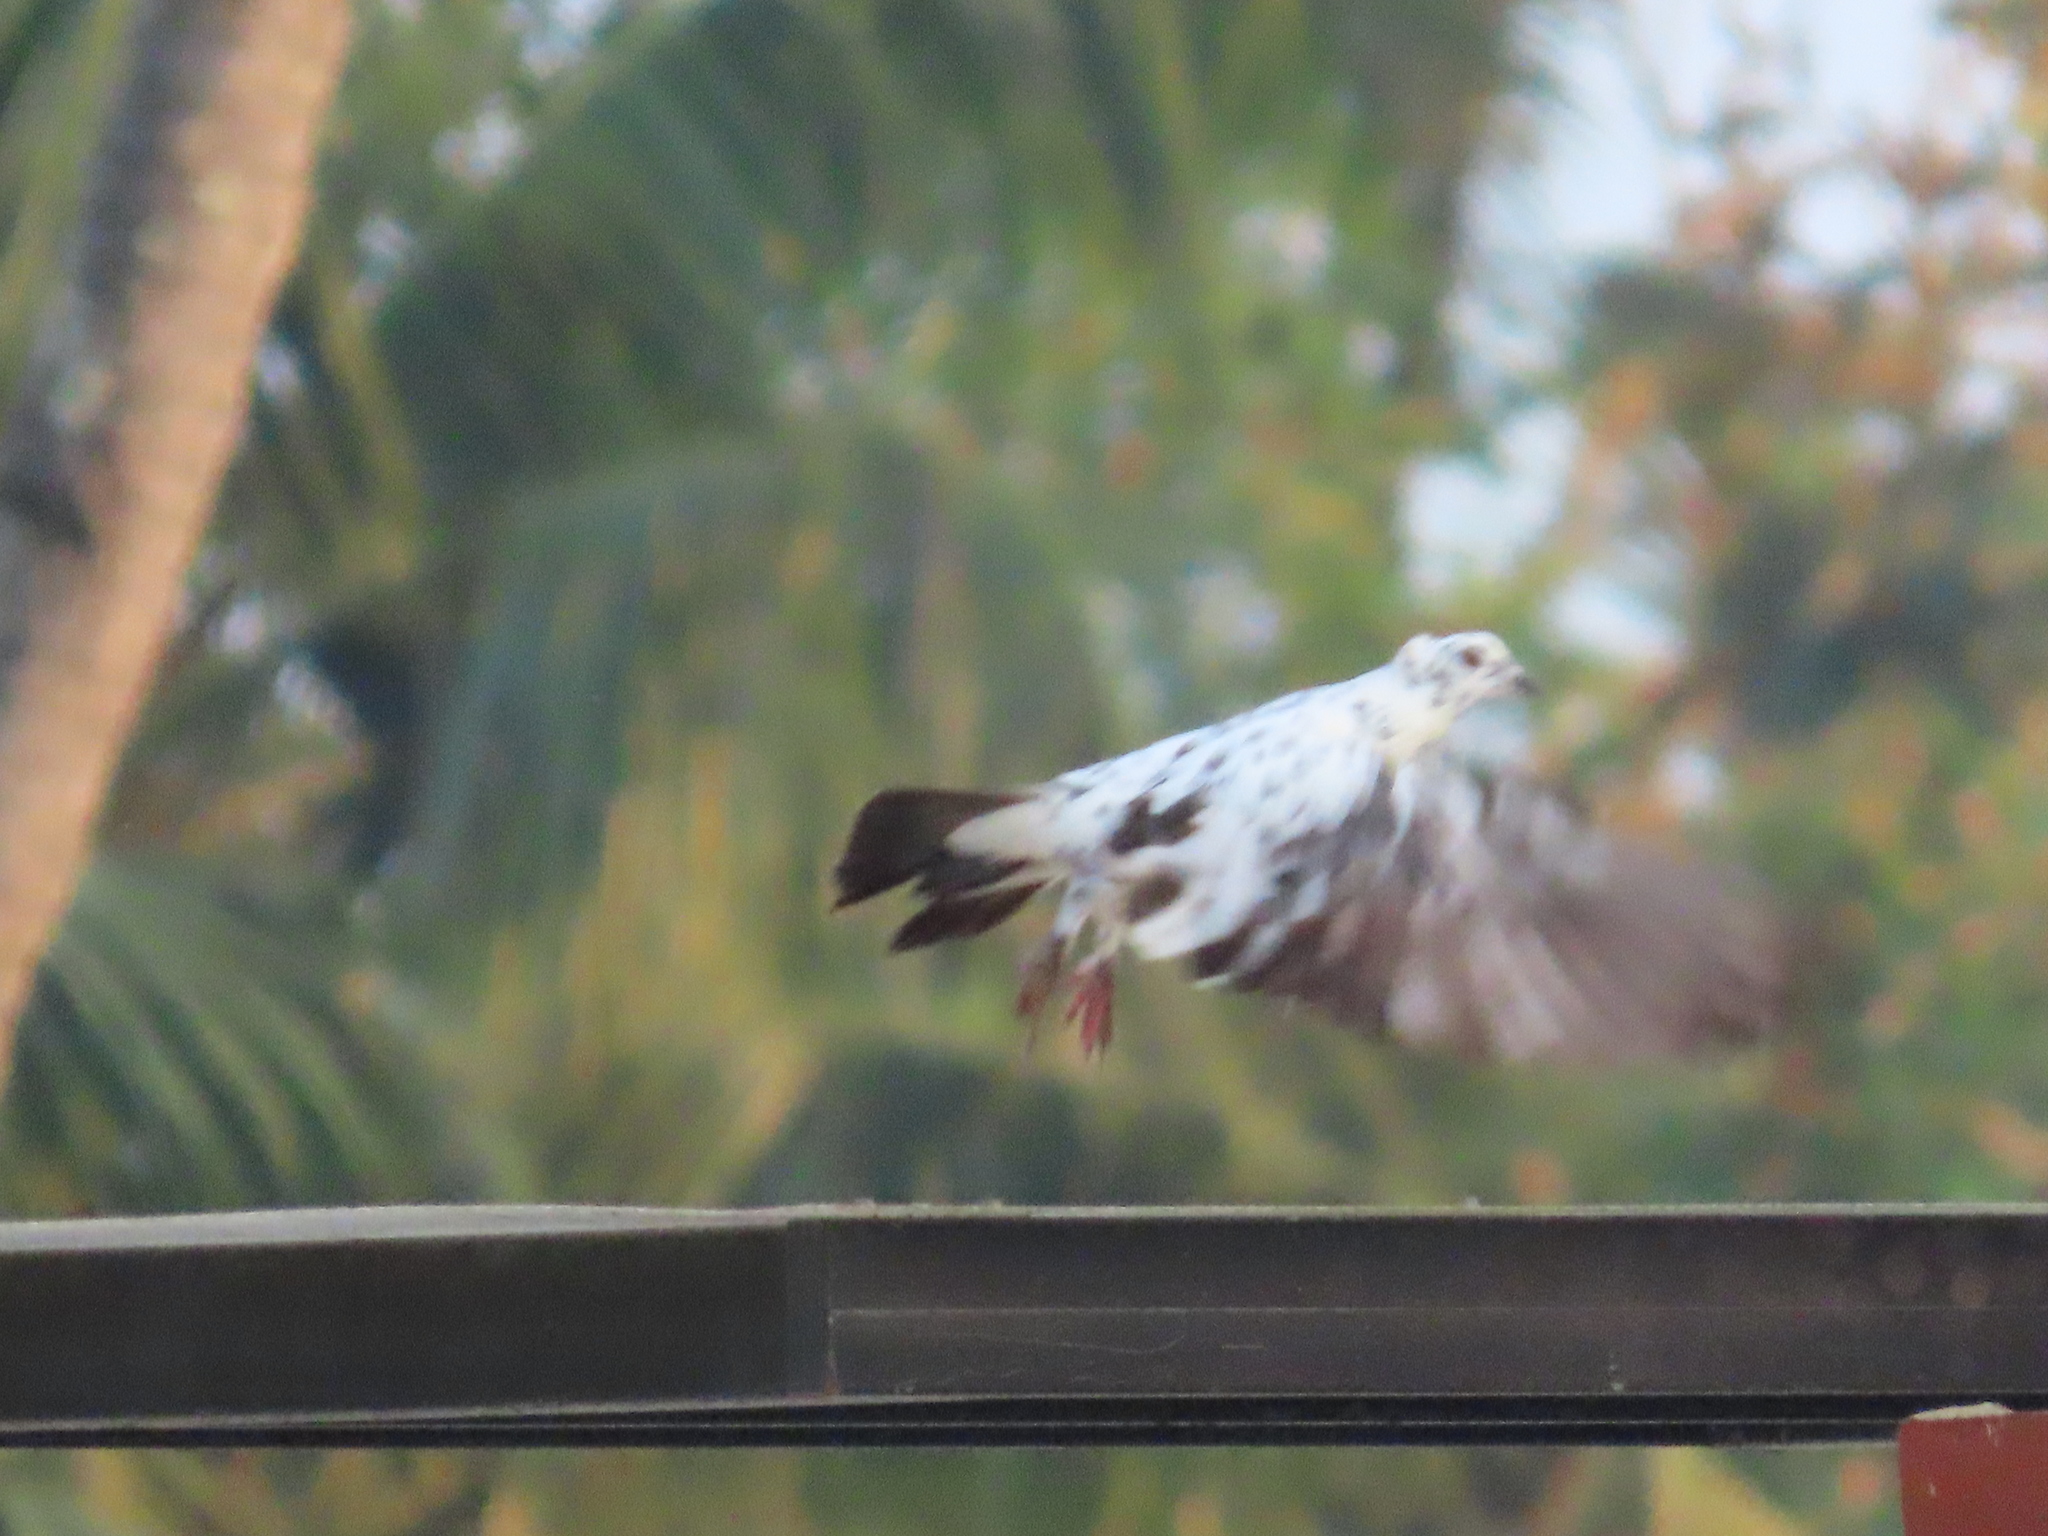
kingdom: Animalia
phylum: Chordata
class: Aves
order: Columbiformes
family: Columbidae
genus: Columba
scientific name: Columba livia
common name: Rock pigeon
